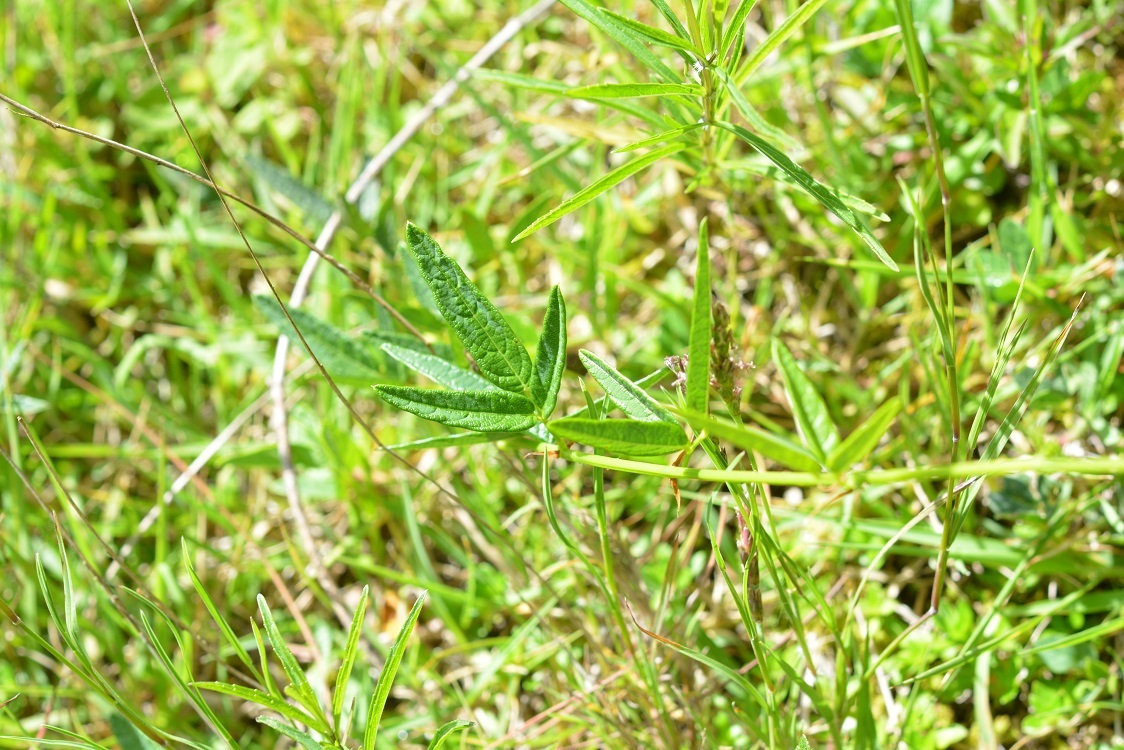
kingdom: Plantae
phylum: Tracheophyta
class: Magnoliopsida
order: Fabales
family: Fabaceae
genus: Desmodium
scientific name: Desmodium
